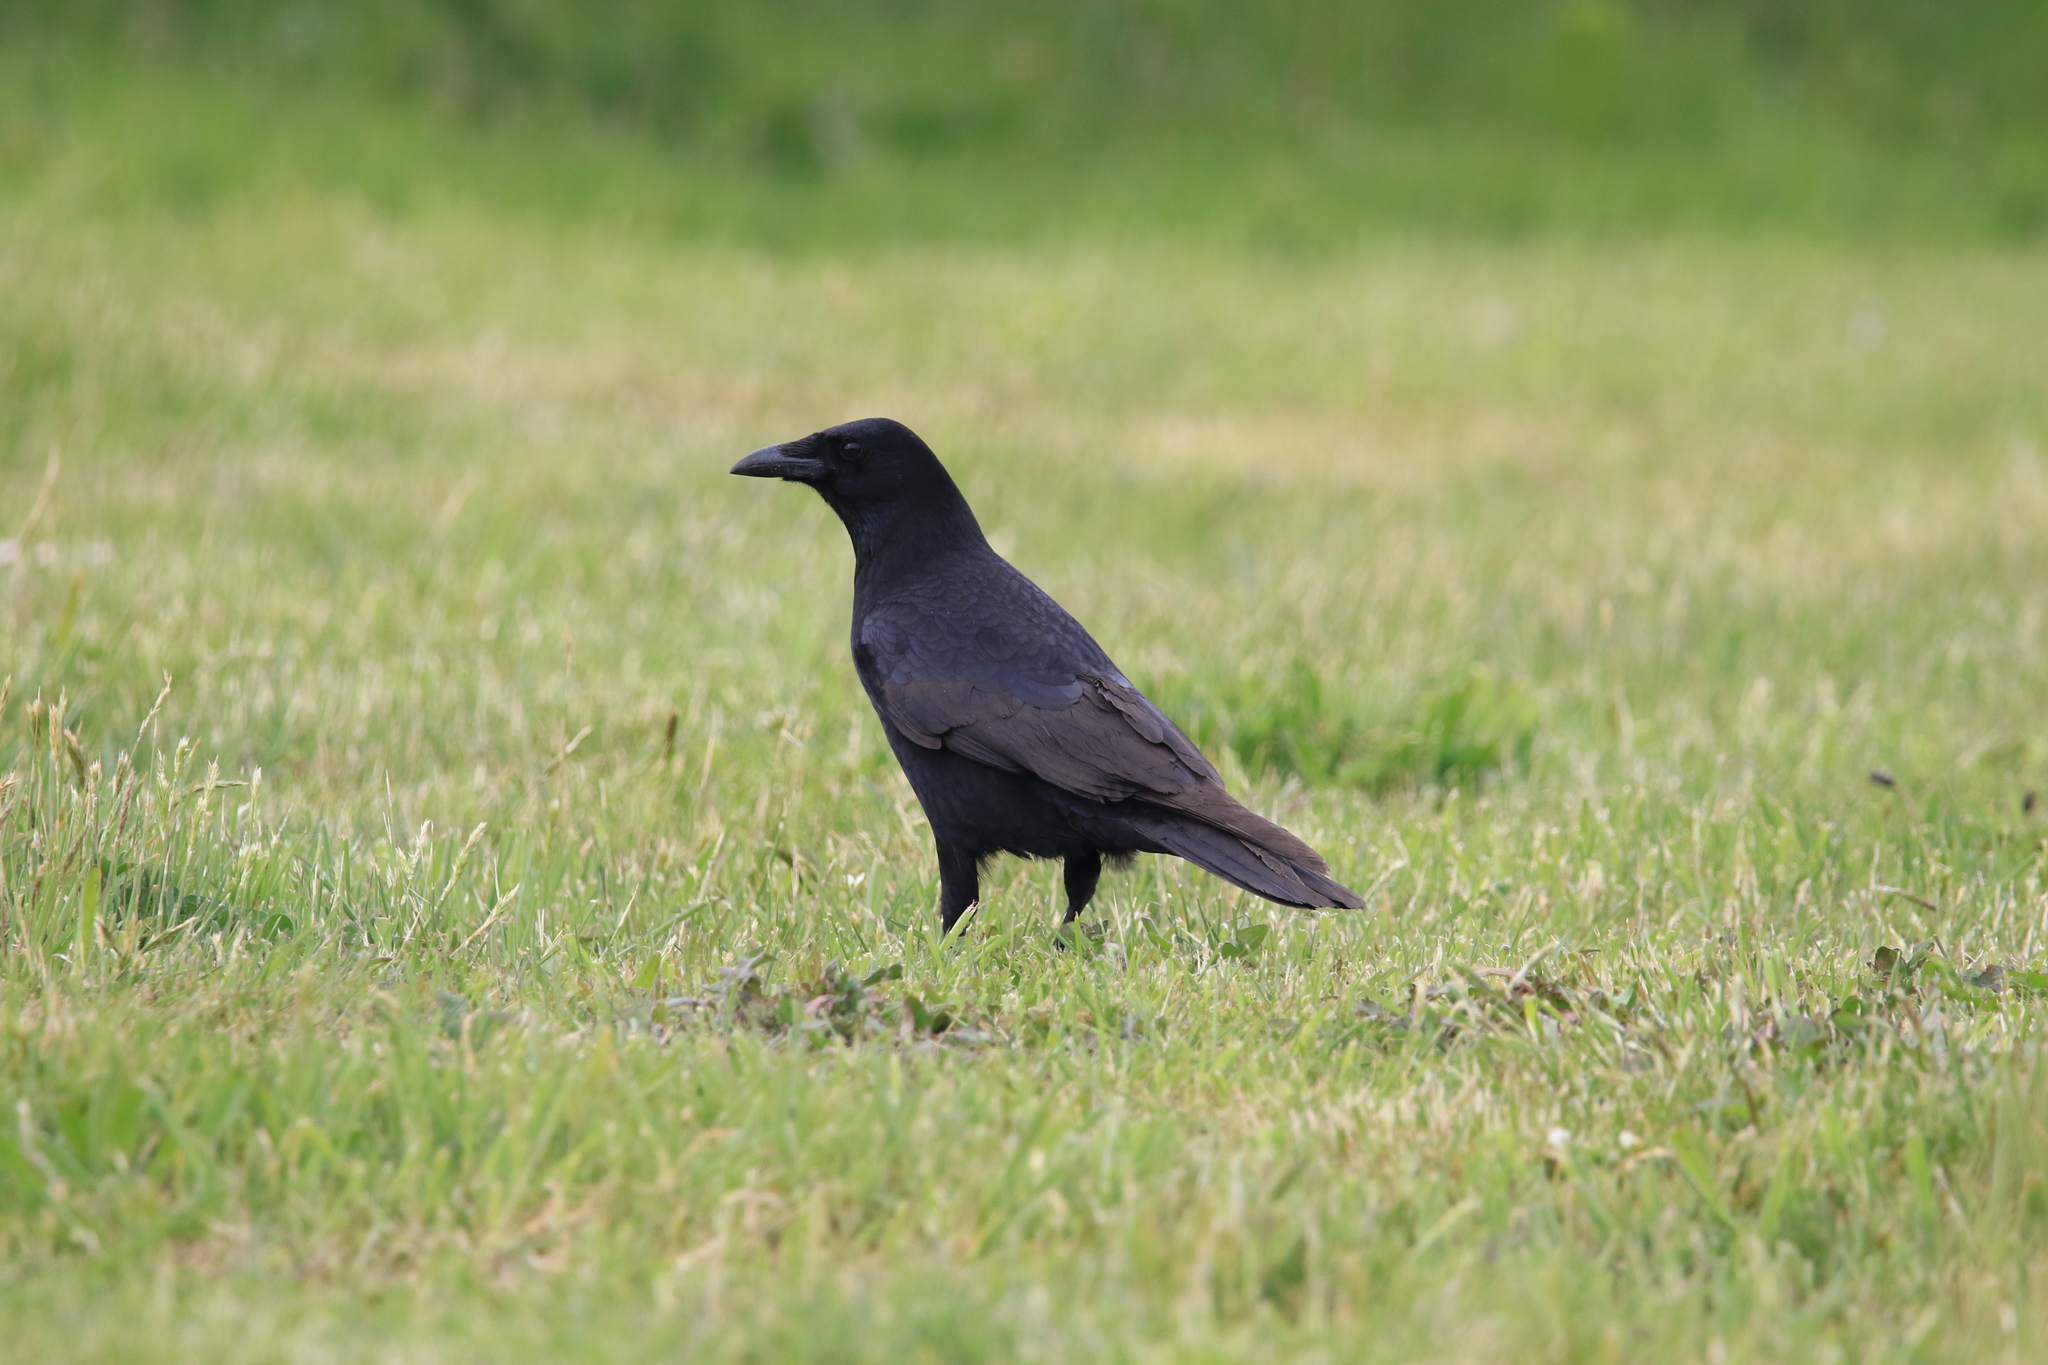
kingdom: Animalia
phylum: Chordata
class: Aves
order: Passeriformes
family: Corvidae
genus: Corvus
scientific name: Corvus brachyrhynchos
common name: American crow
